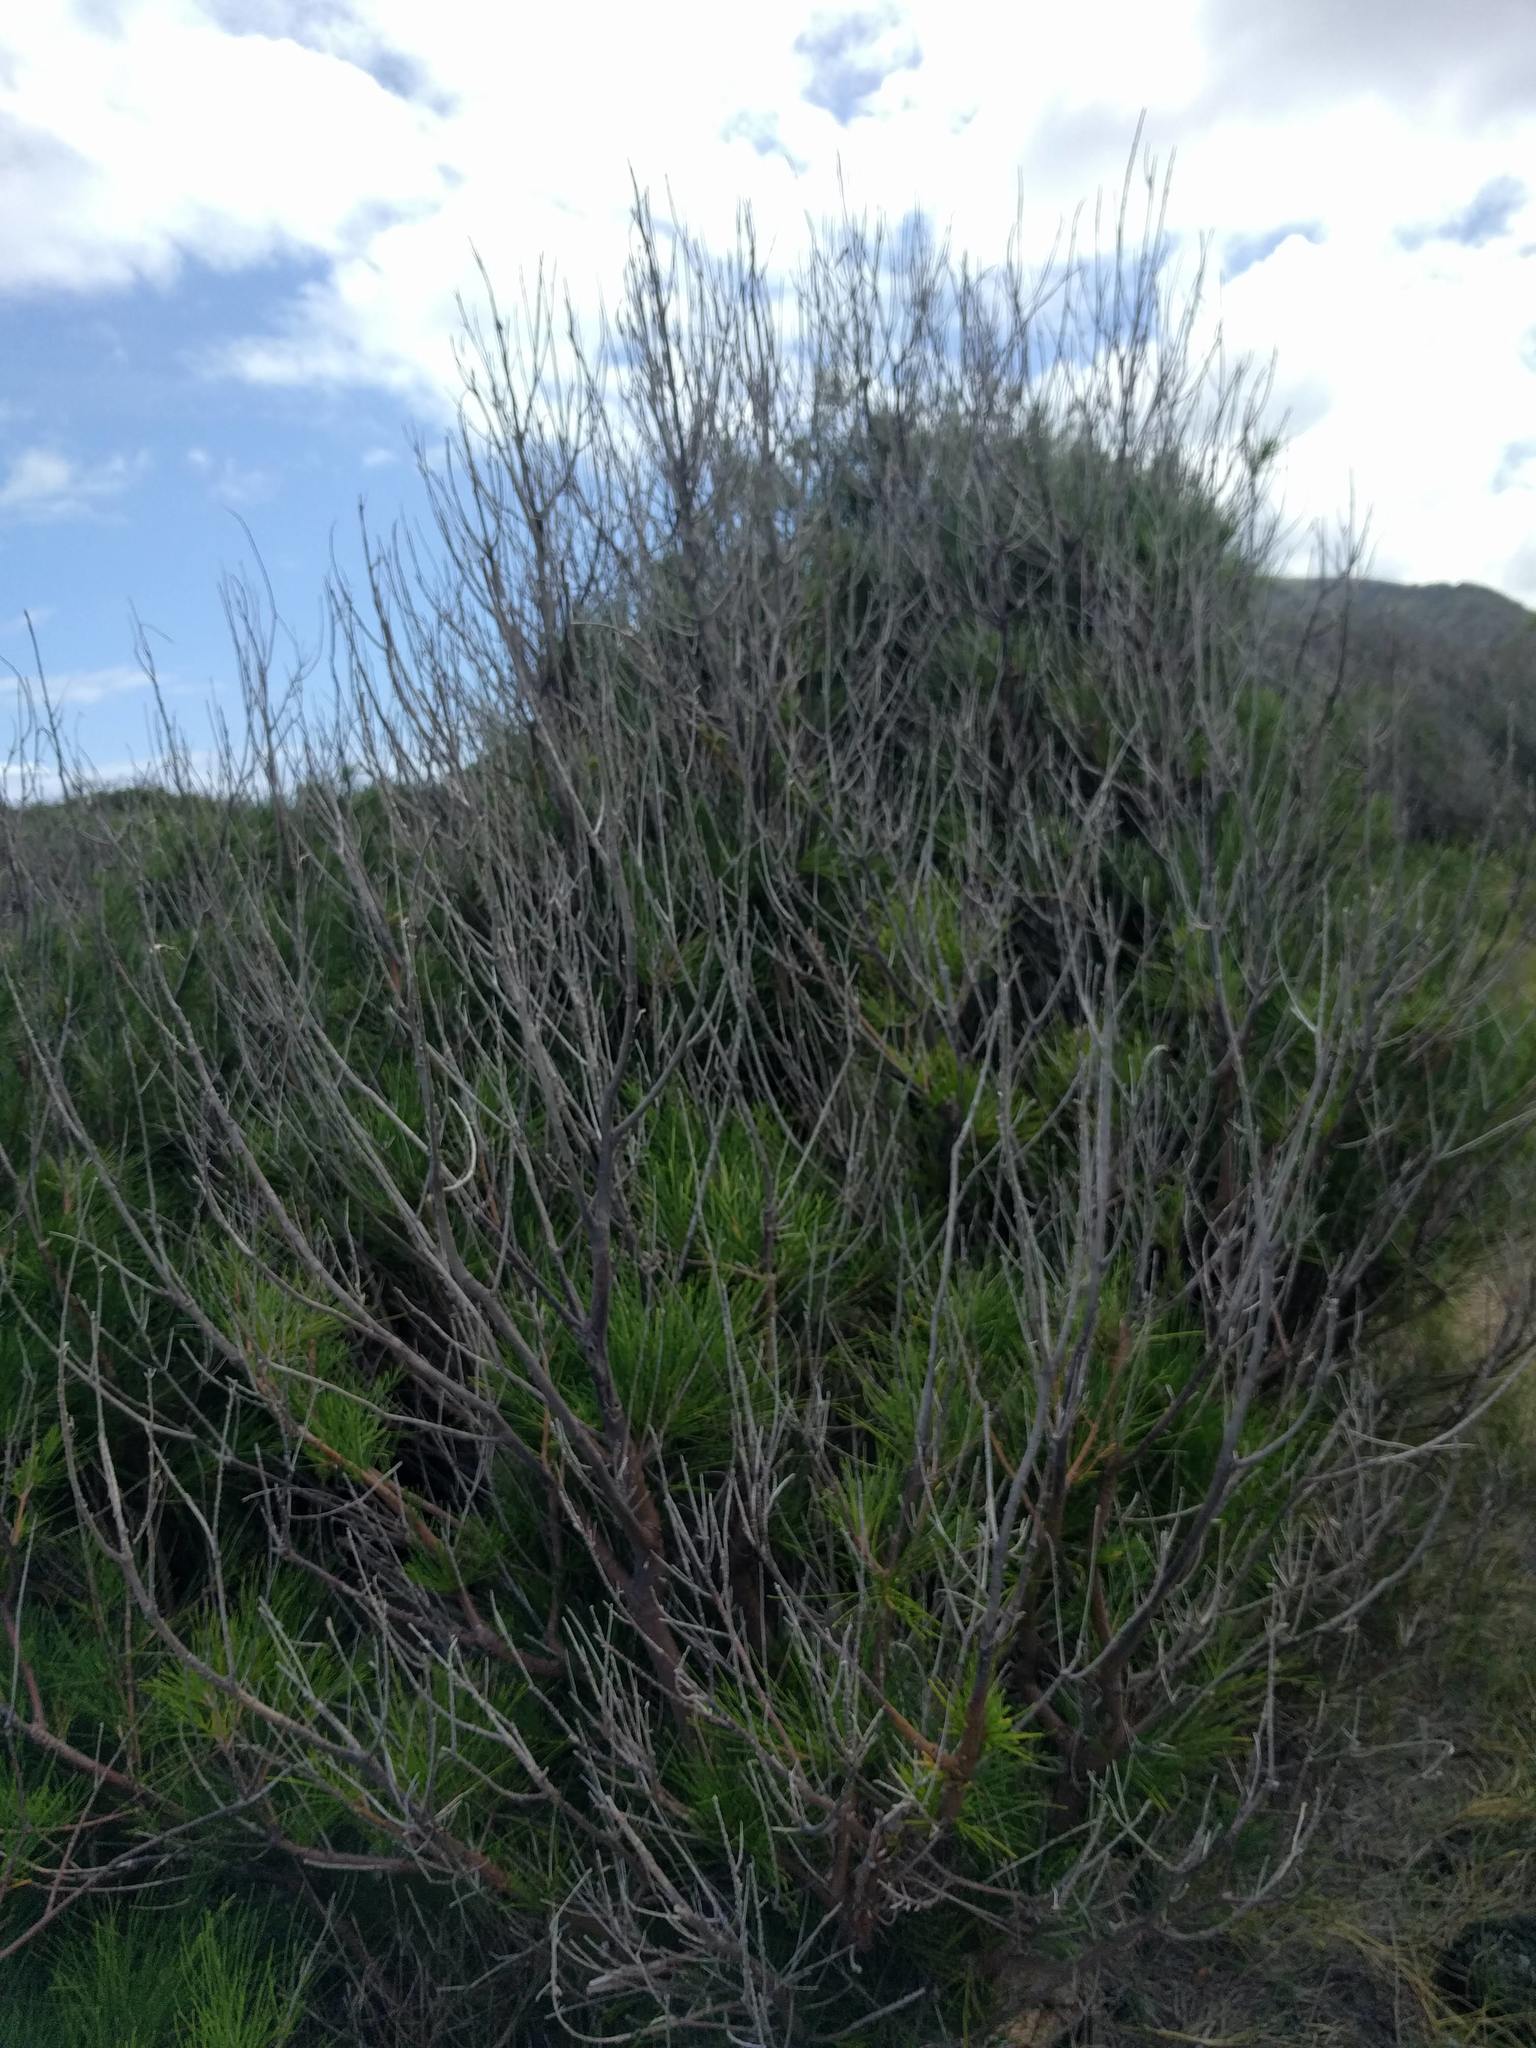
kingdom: Plantae
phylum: Tracheophyta
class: Magnoliopsida
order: Fagales
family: Casuarinaceae
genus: Casuarina
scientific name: Casuarina equisetifolia
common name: Beach sheoak
